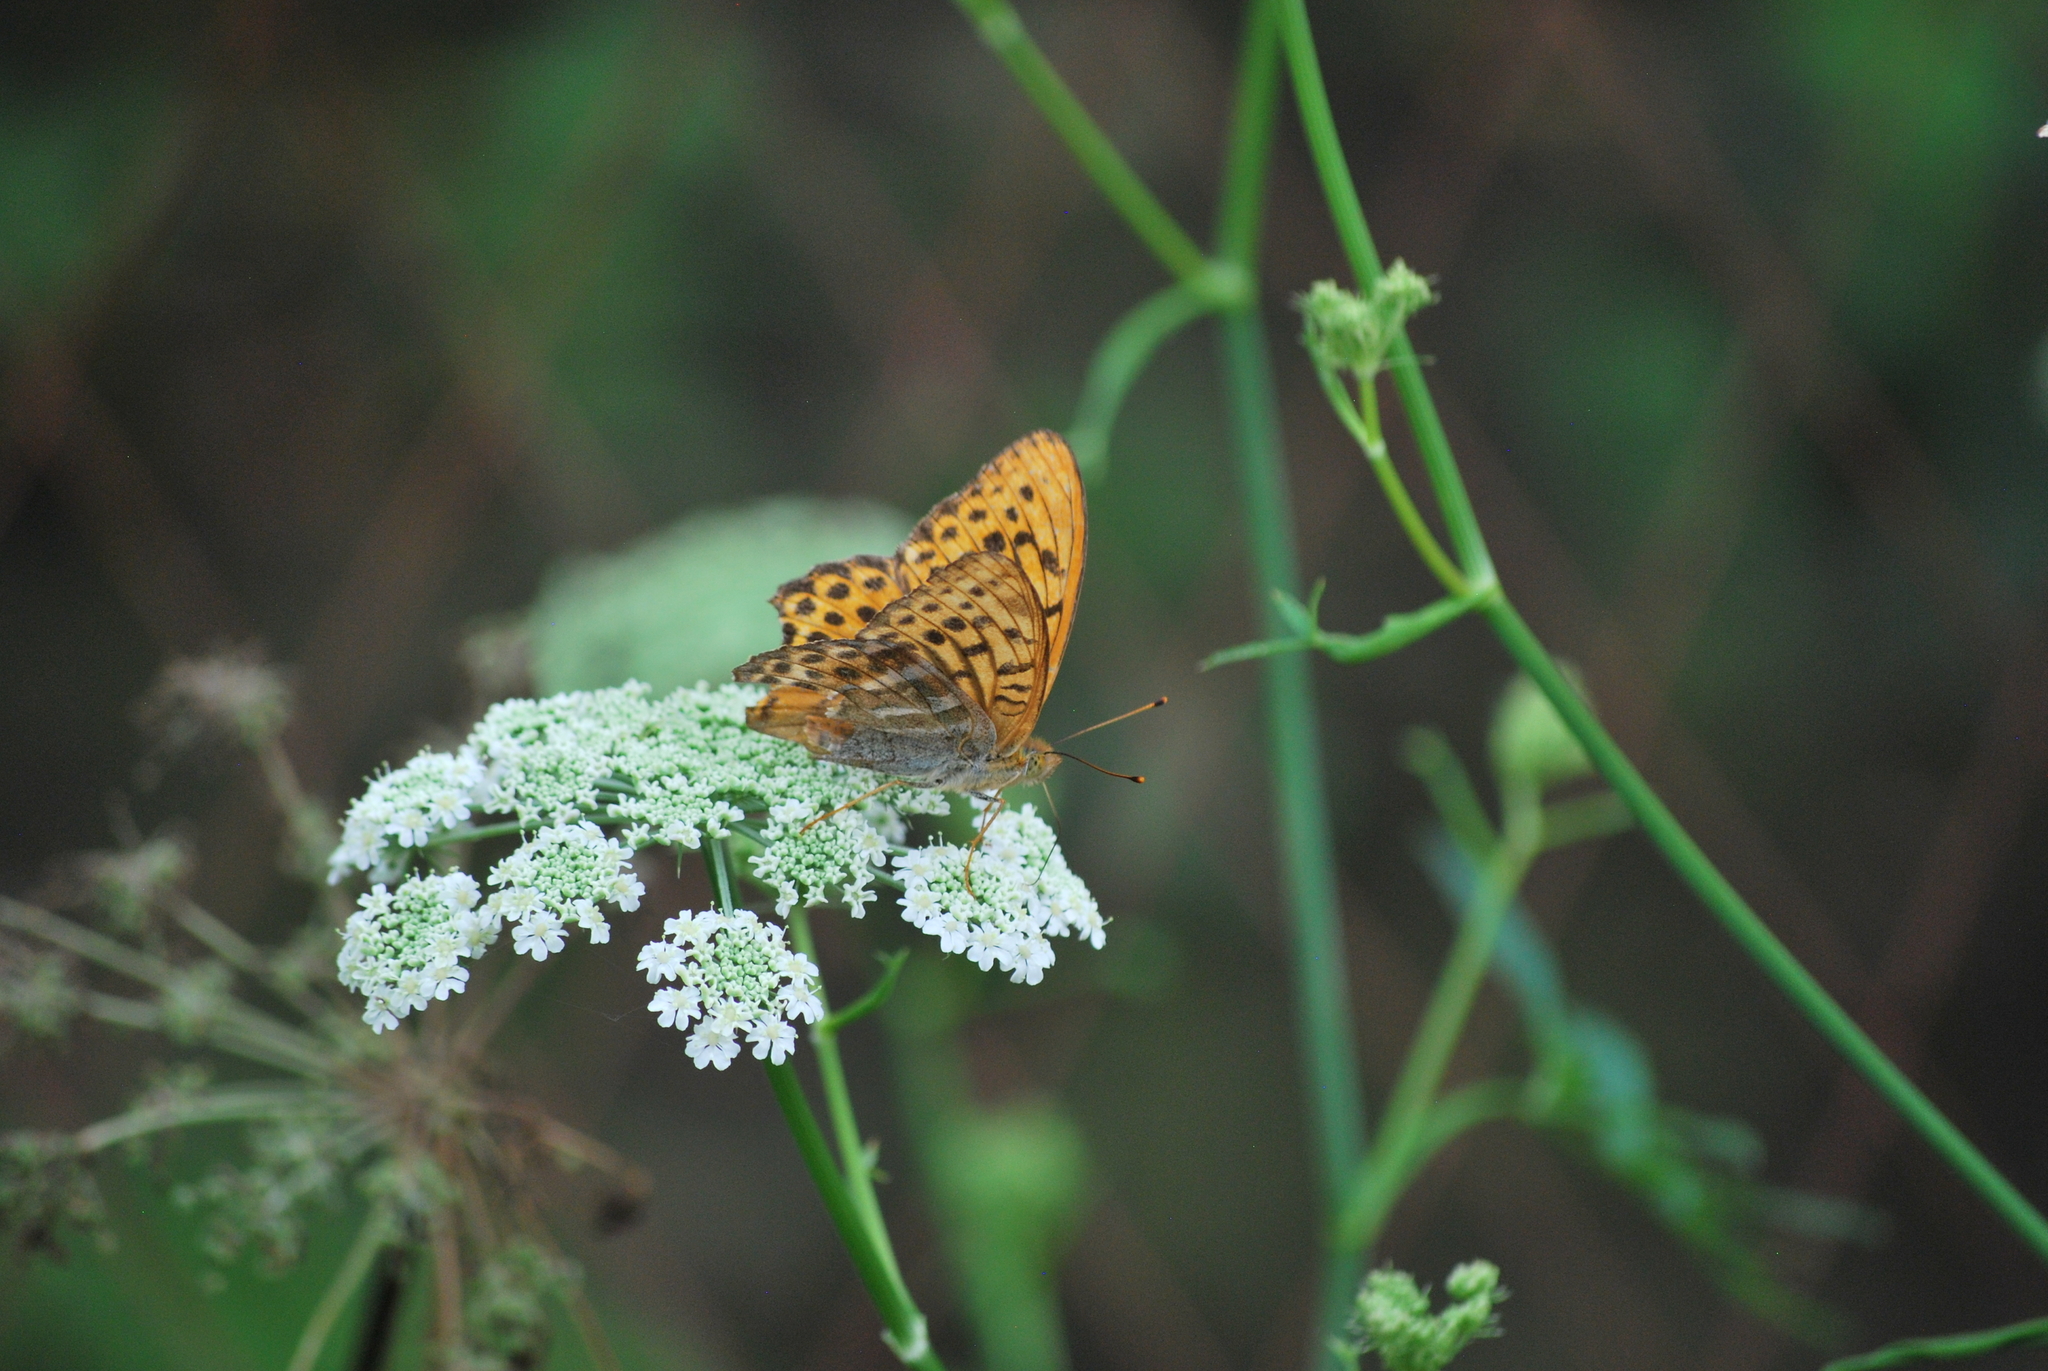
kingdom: Animalia
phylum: Arthropoda
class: Insecta
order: Lepidoptera
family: Nymphalidae
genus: Argynnis
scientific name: Argynnis paphia
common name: Silver-washed fritillary
